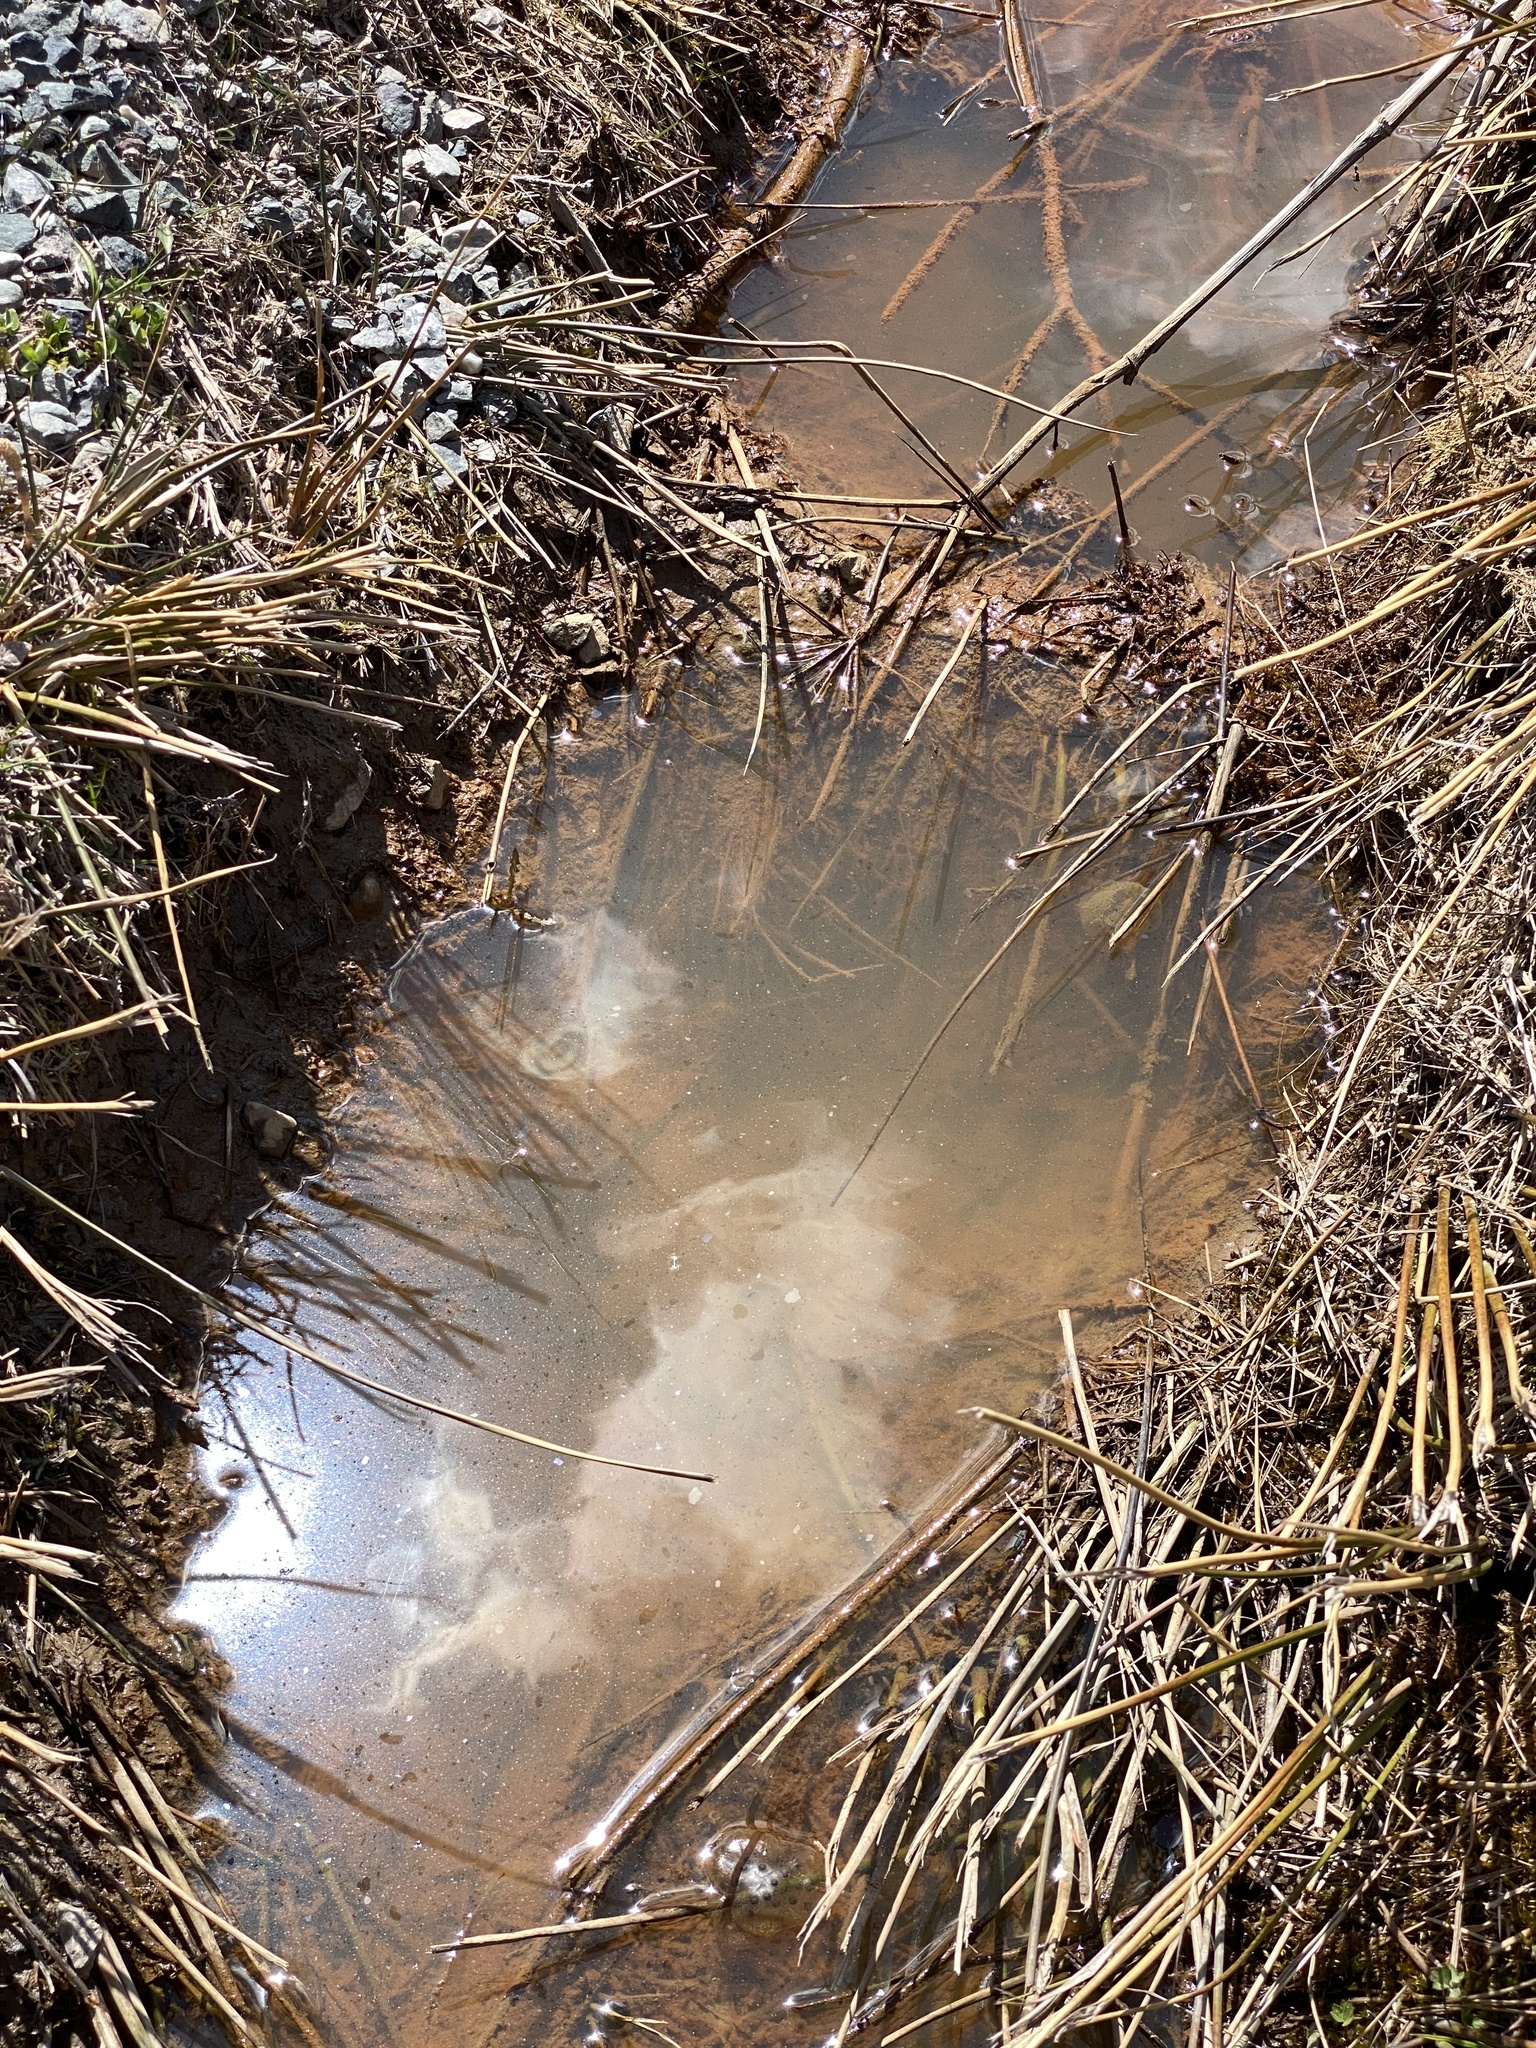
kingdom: Animalia
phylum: Chordata
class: Amphibia
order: Caudata
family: Ambystomatidae
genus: Ambystoma
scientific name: Ambystoma maculatum
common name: Spotted salamander
